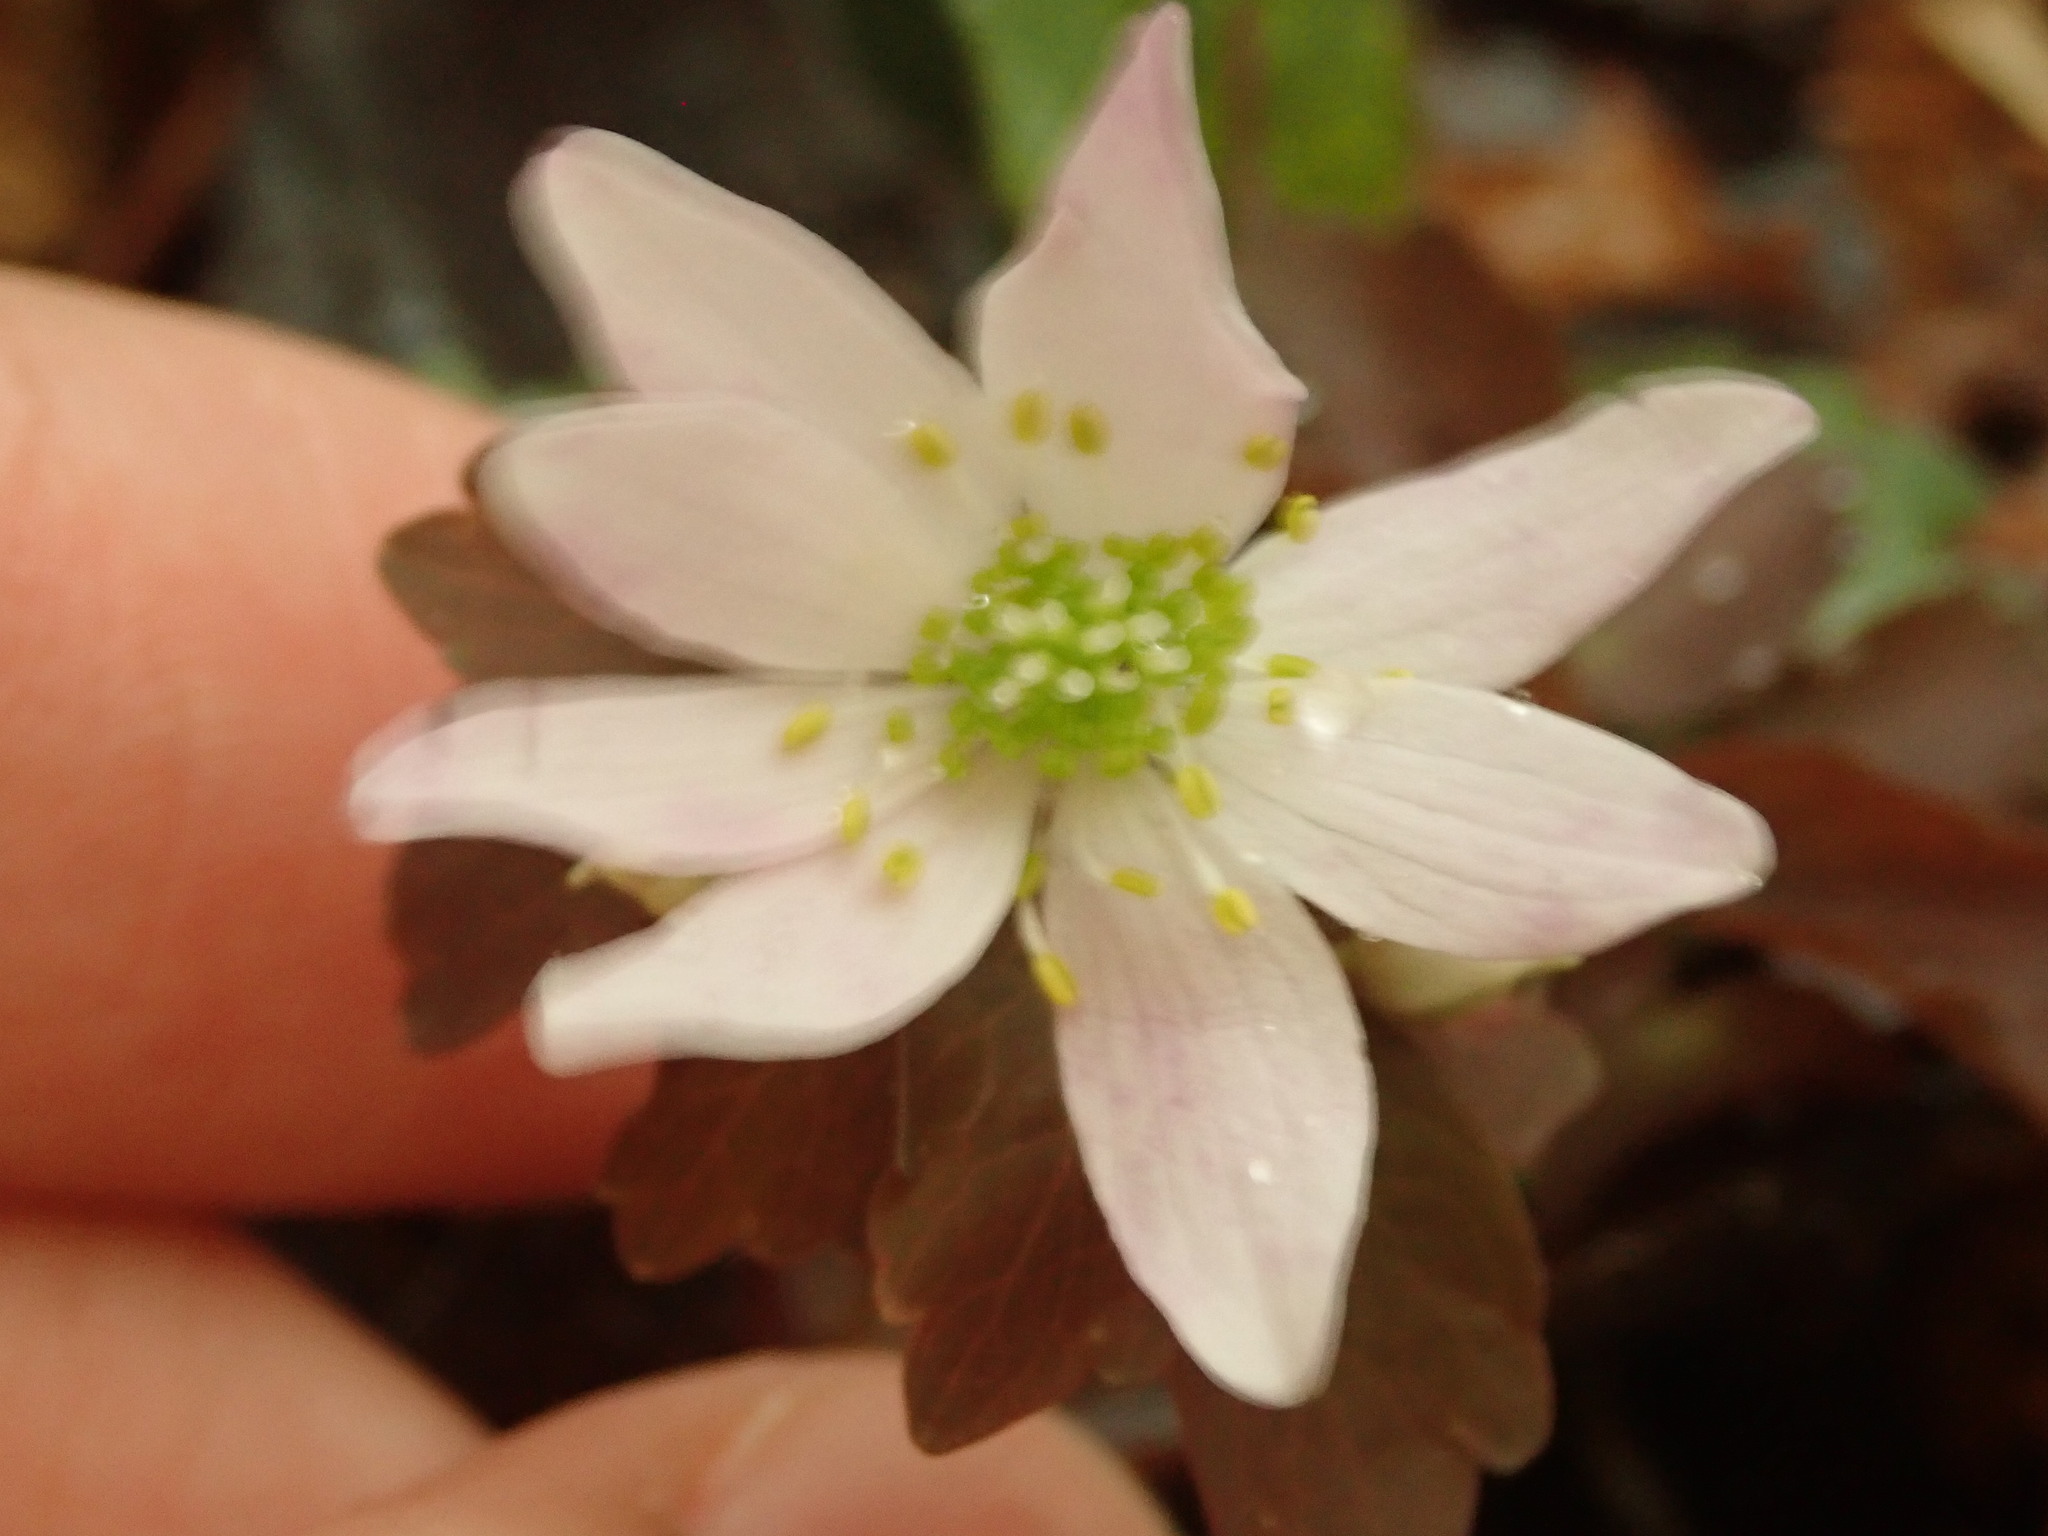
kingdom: Plantae
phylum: Tracheophyta
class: Magnoliopsida
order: Ranunculales
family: Ranunculaceae
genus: Thalictrum
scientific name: Thalictrum thalictroides
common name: Rue-anemone
